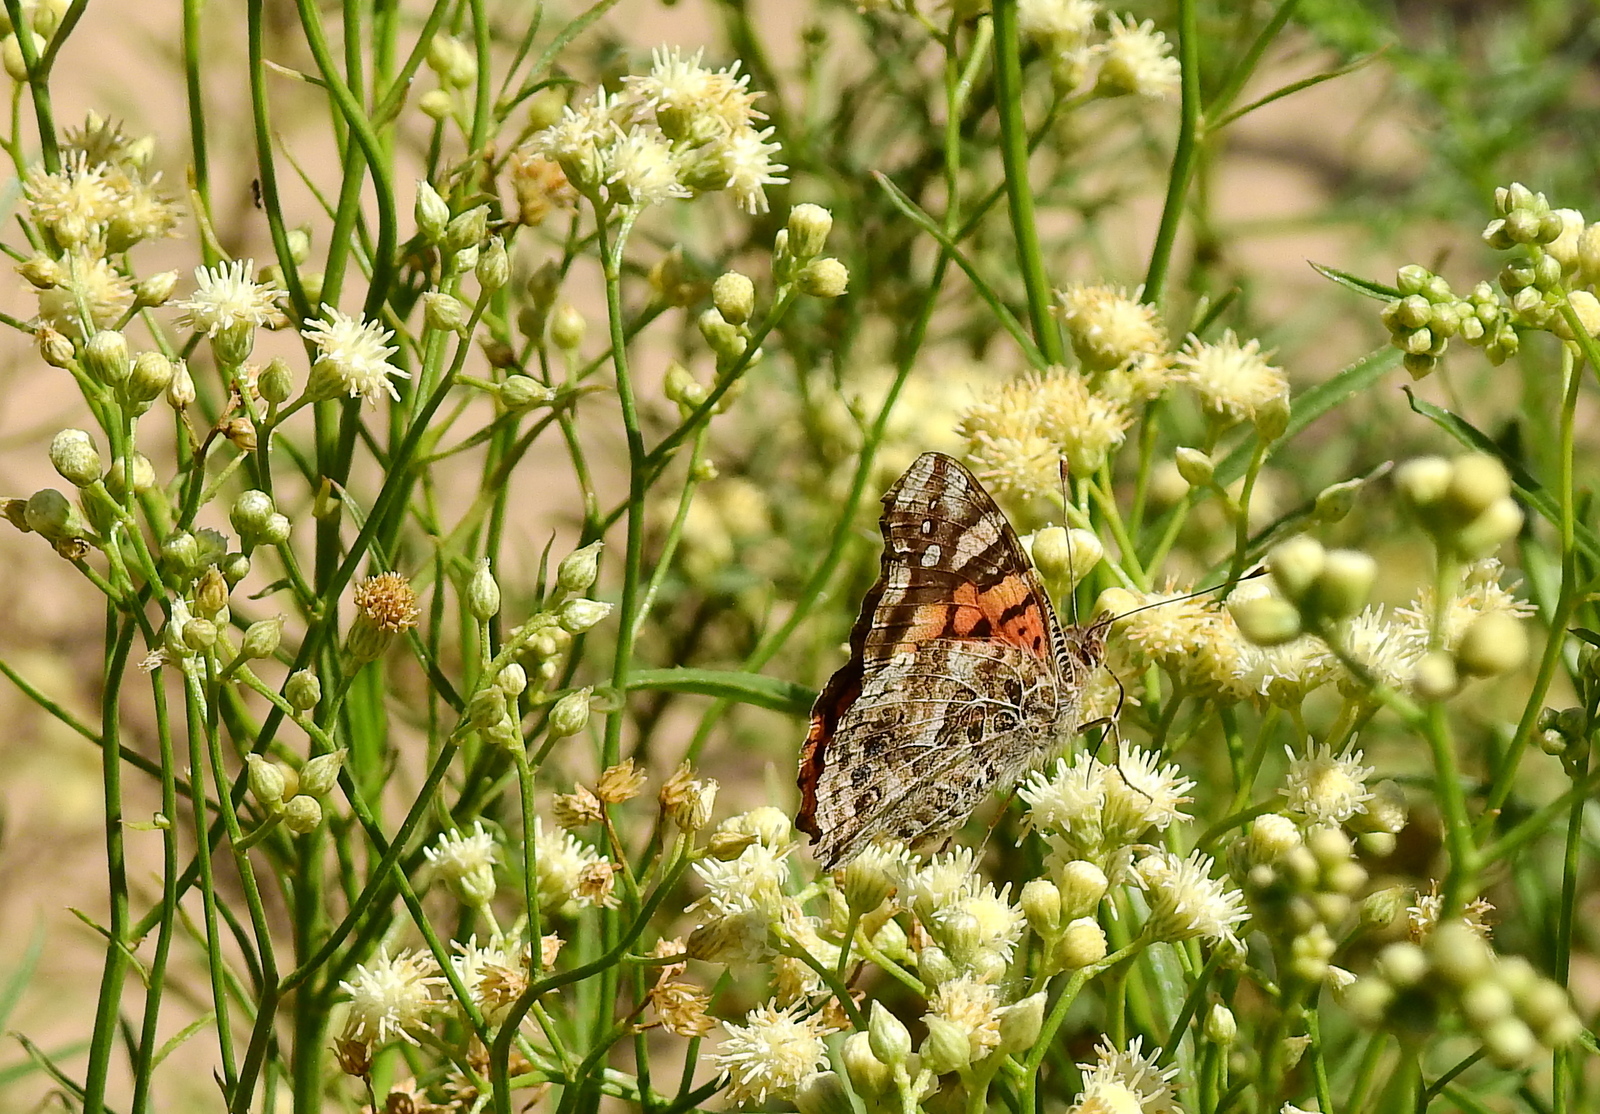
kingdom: Animalia
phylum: Arthropoda
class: Insecta
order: Lepidoptera
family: Nymphalidae
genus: Vanessa
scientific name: Vanessa carye
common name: Subtropical lady
